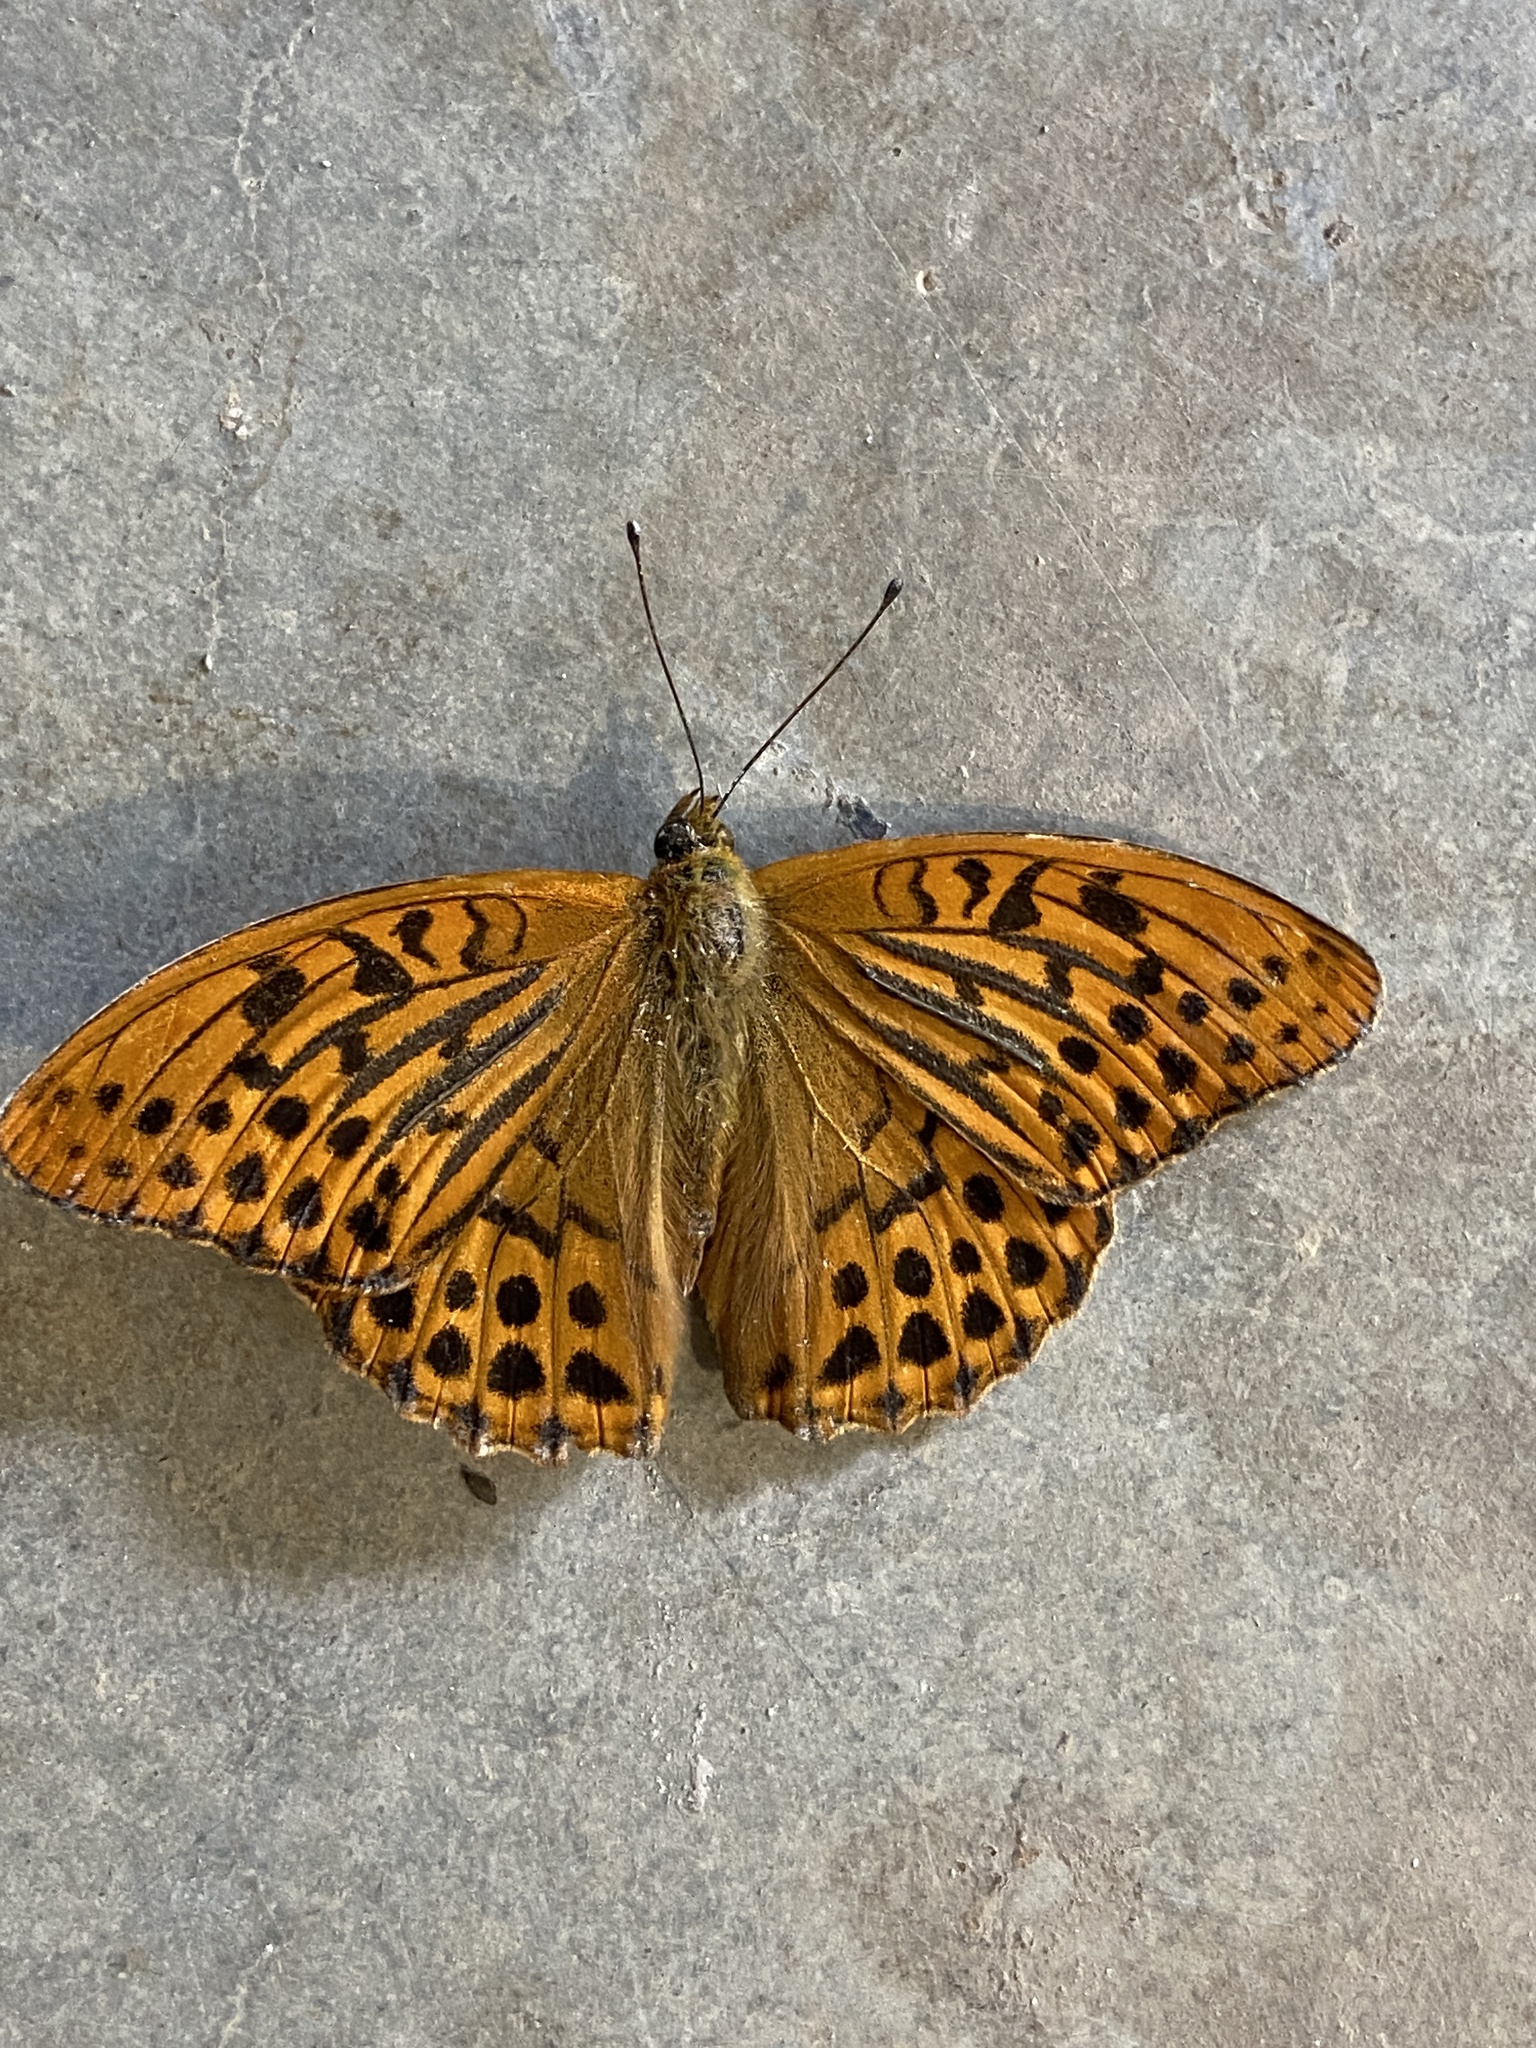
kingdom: Animalia
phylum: Arthropoda
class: Insecta
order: Lepidoptera
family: Nymphalidae
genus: Argynnis
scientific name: Argynnis paphia
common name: Silver-washed fritillary
